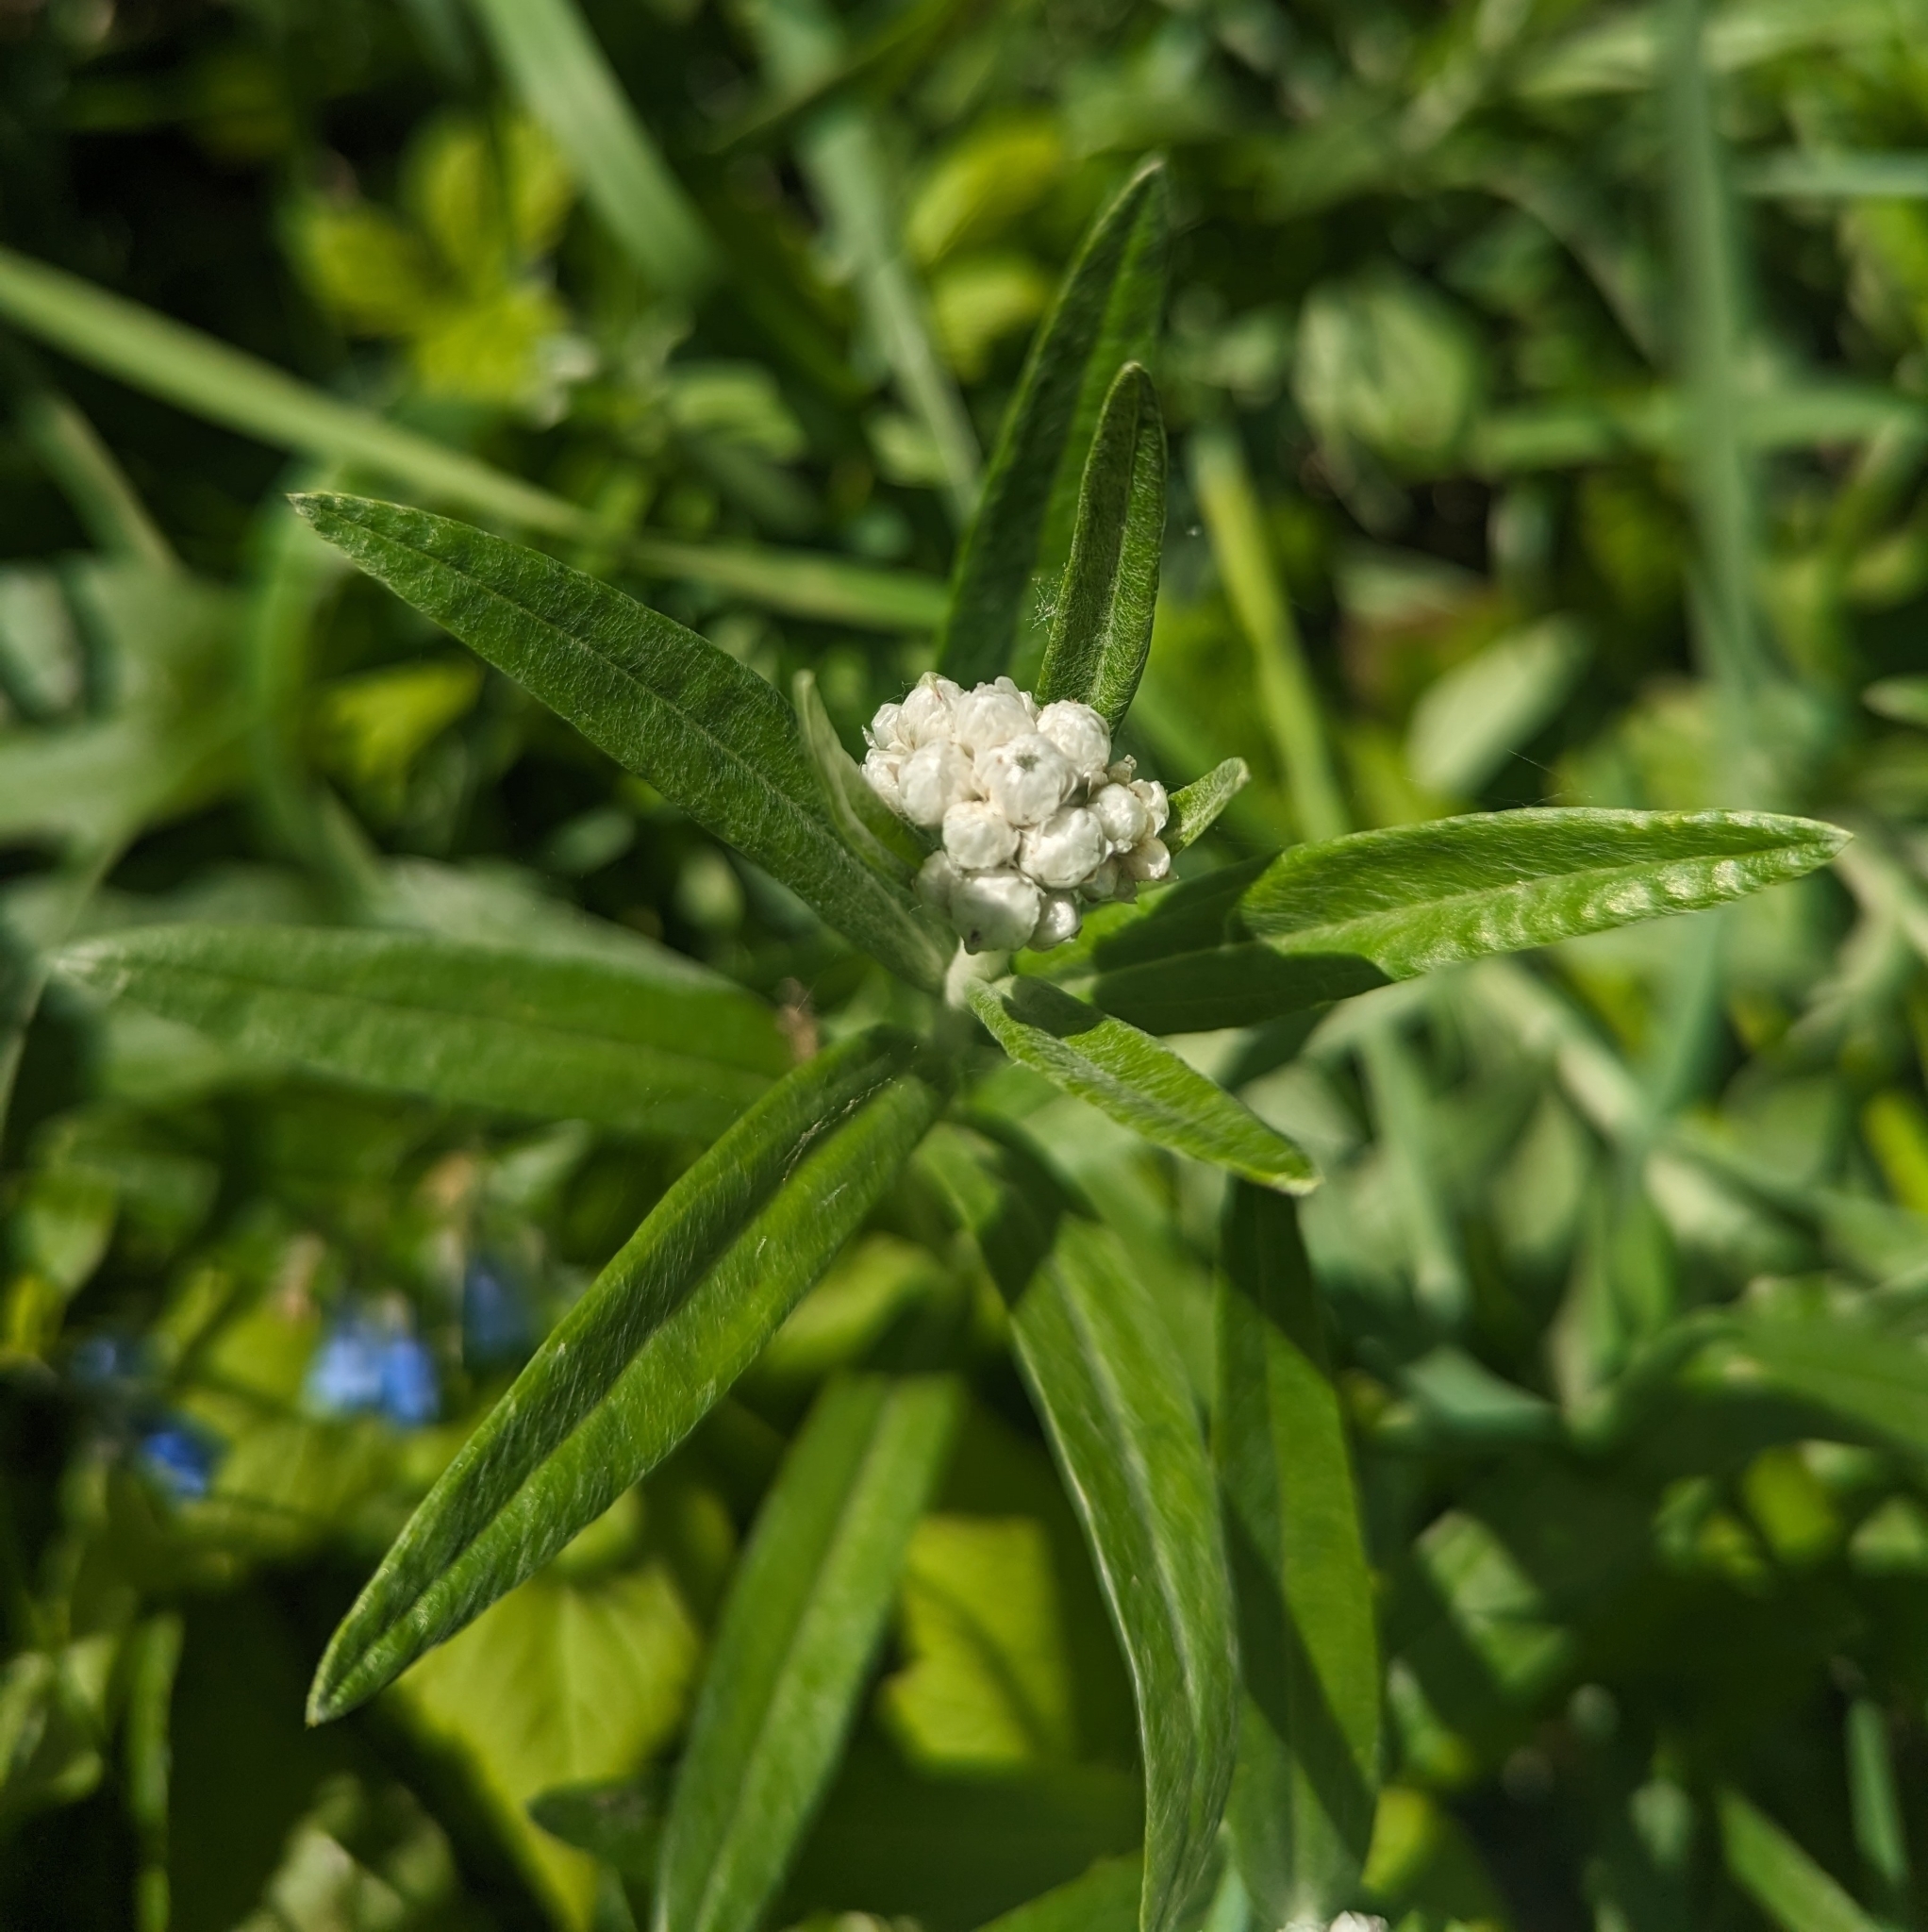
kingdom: Plantae
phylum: Tracheophyta
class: Magnoliopsida
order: Asterales
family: Asteraceae
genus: Anaphalis
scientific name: Anaphalis margaritacea
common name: Pearly everlasting
